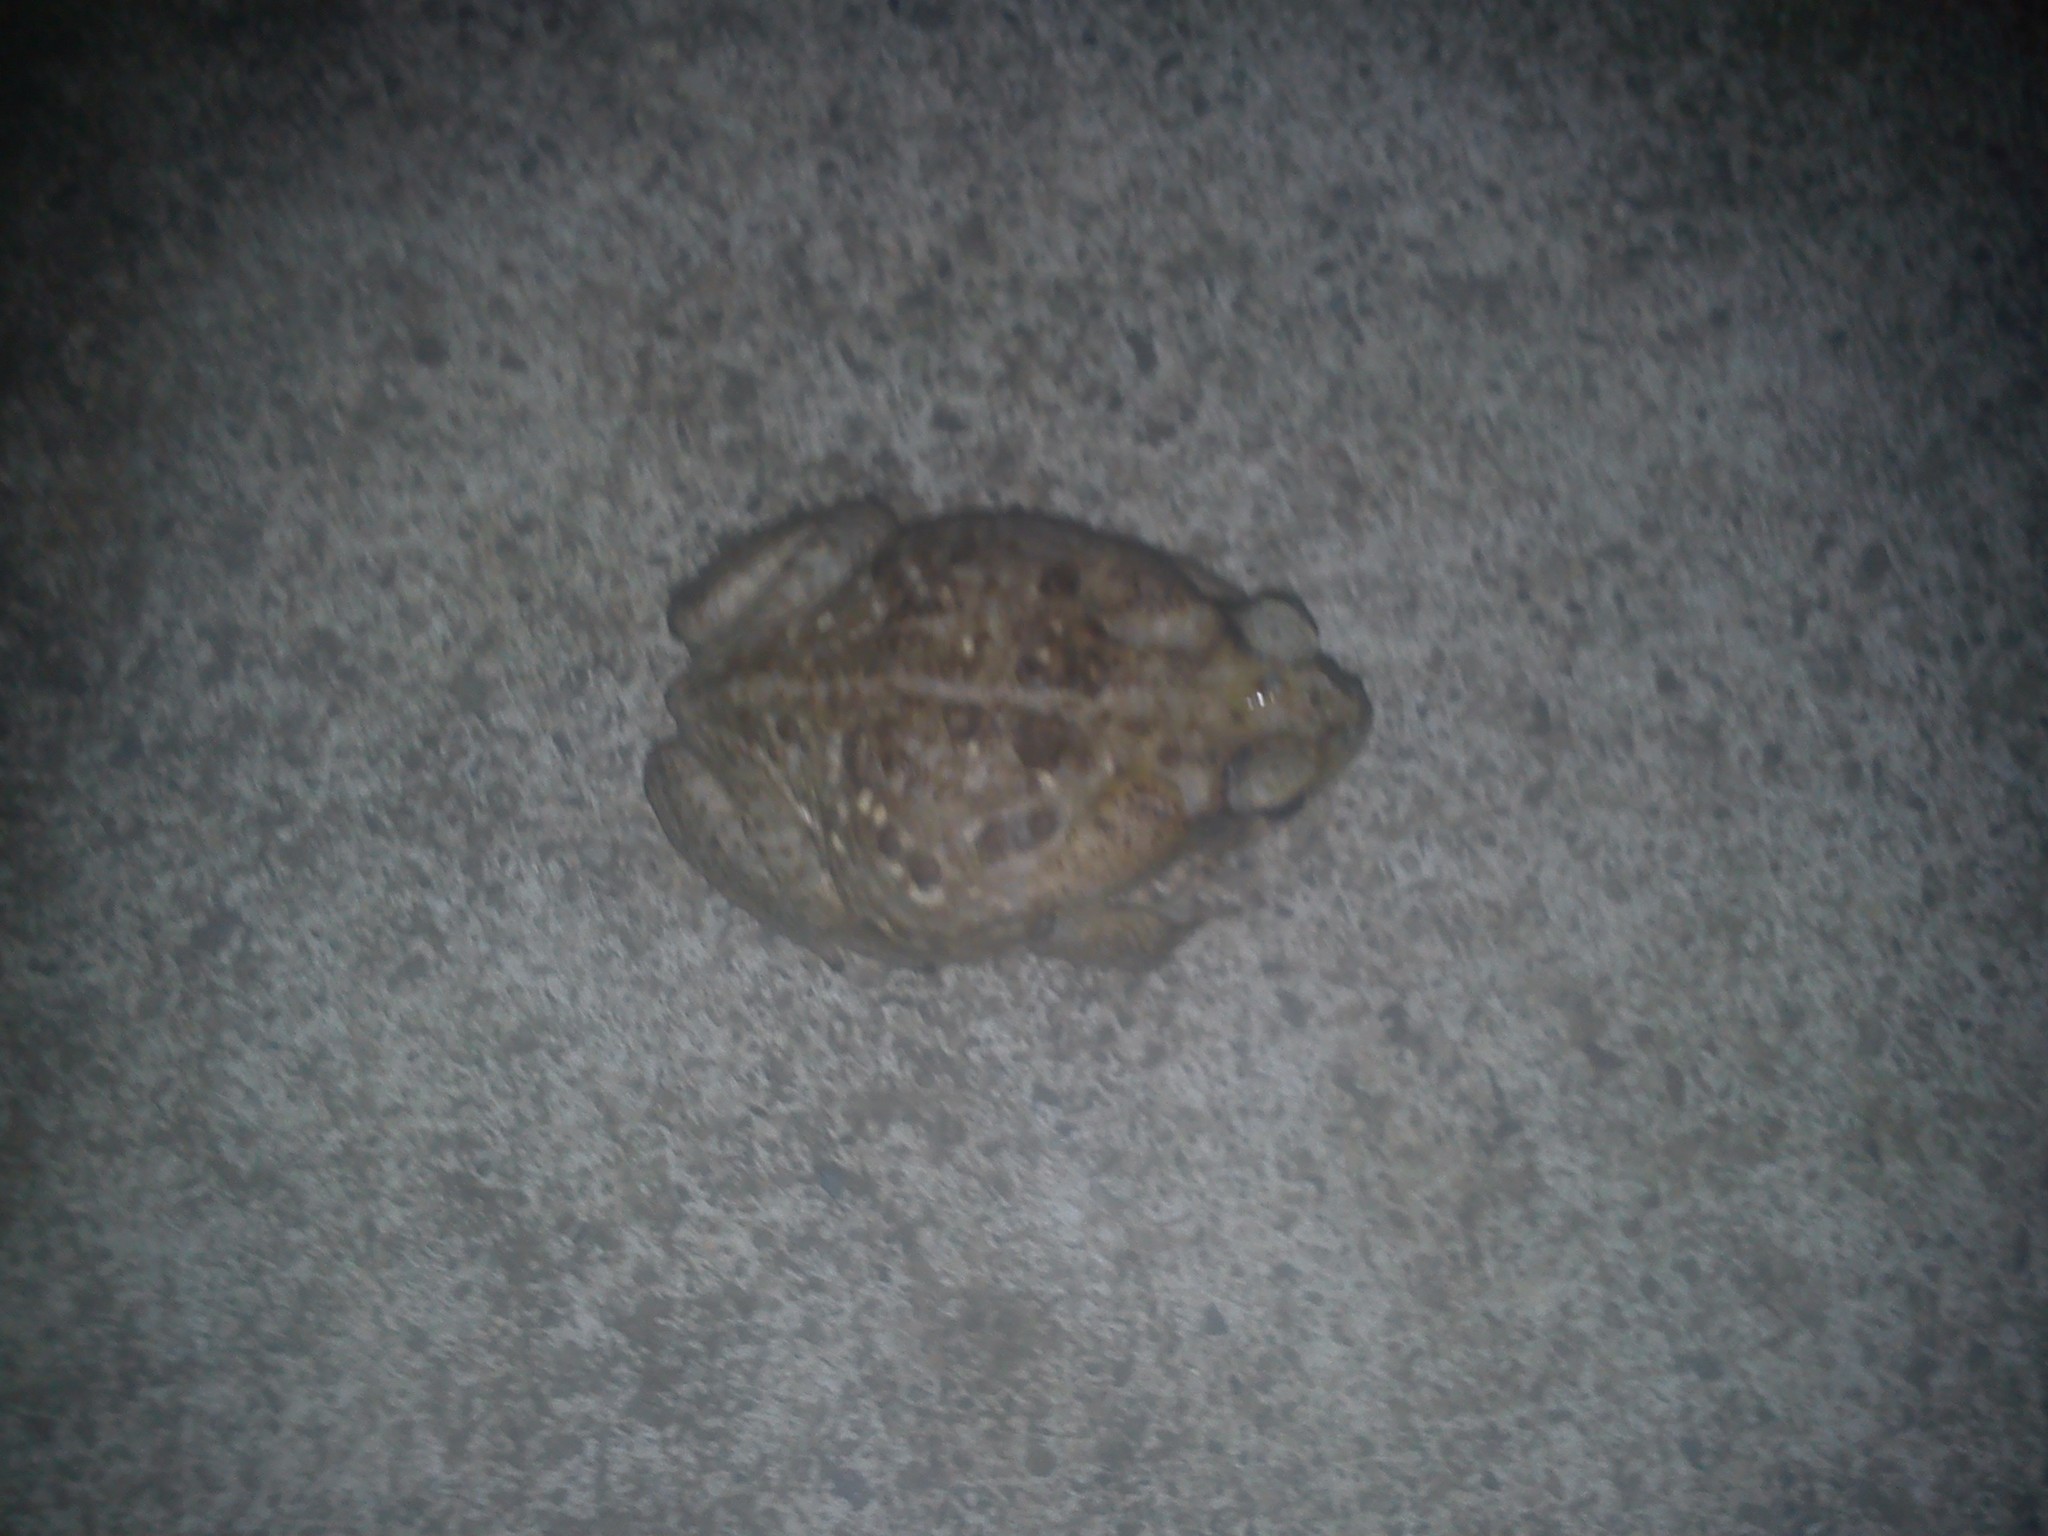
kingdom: Animalia
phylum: Chordata
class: Amphibia
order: Anura
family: Bufonidae
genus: Rhinella
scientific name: Rhinella horribilis
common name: Mesoamerican cane toad
